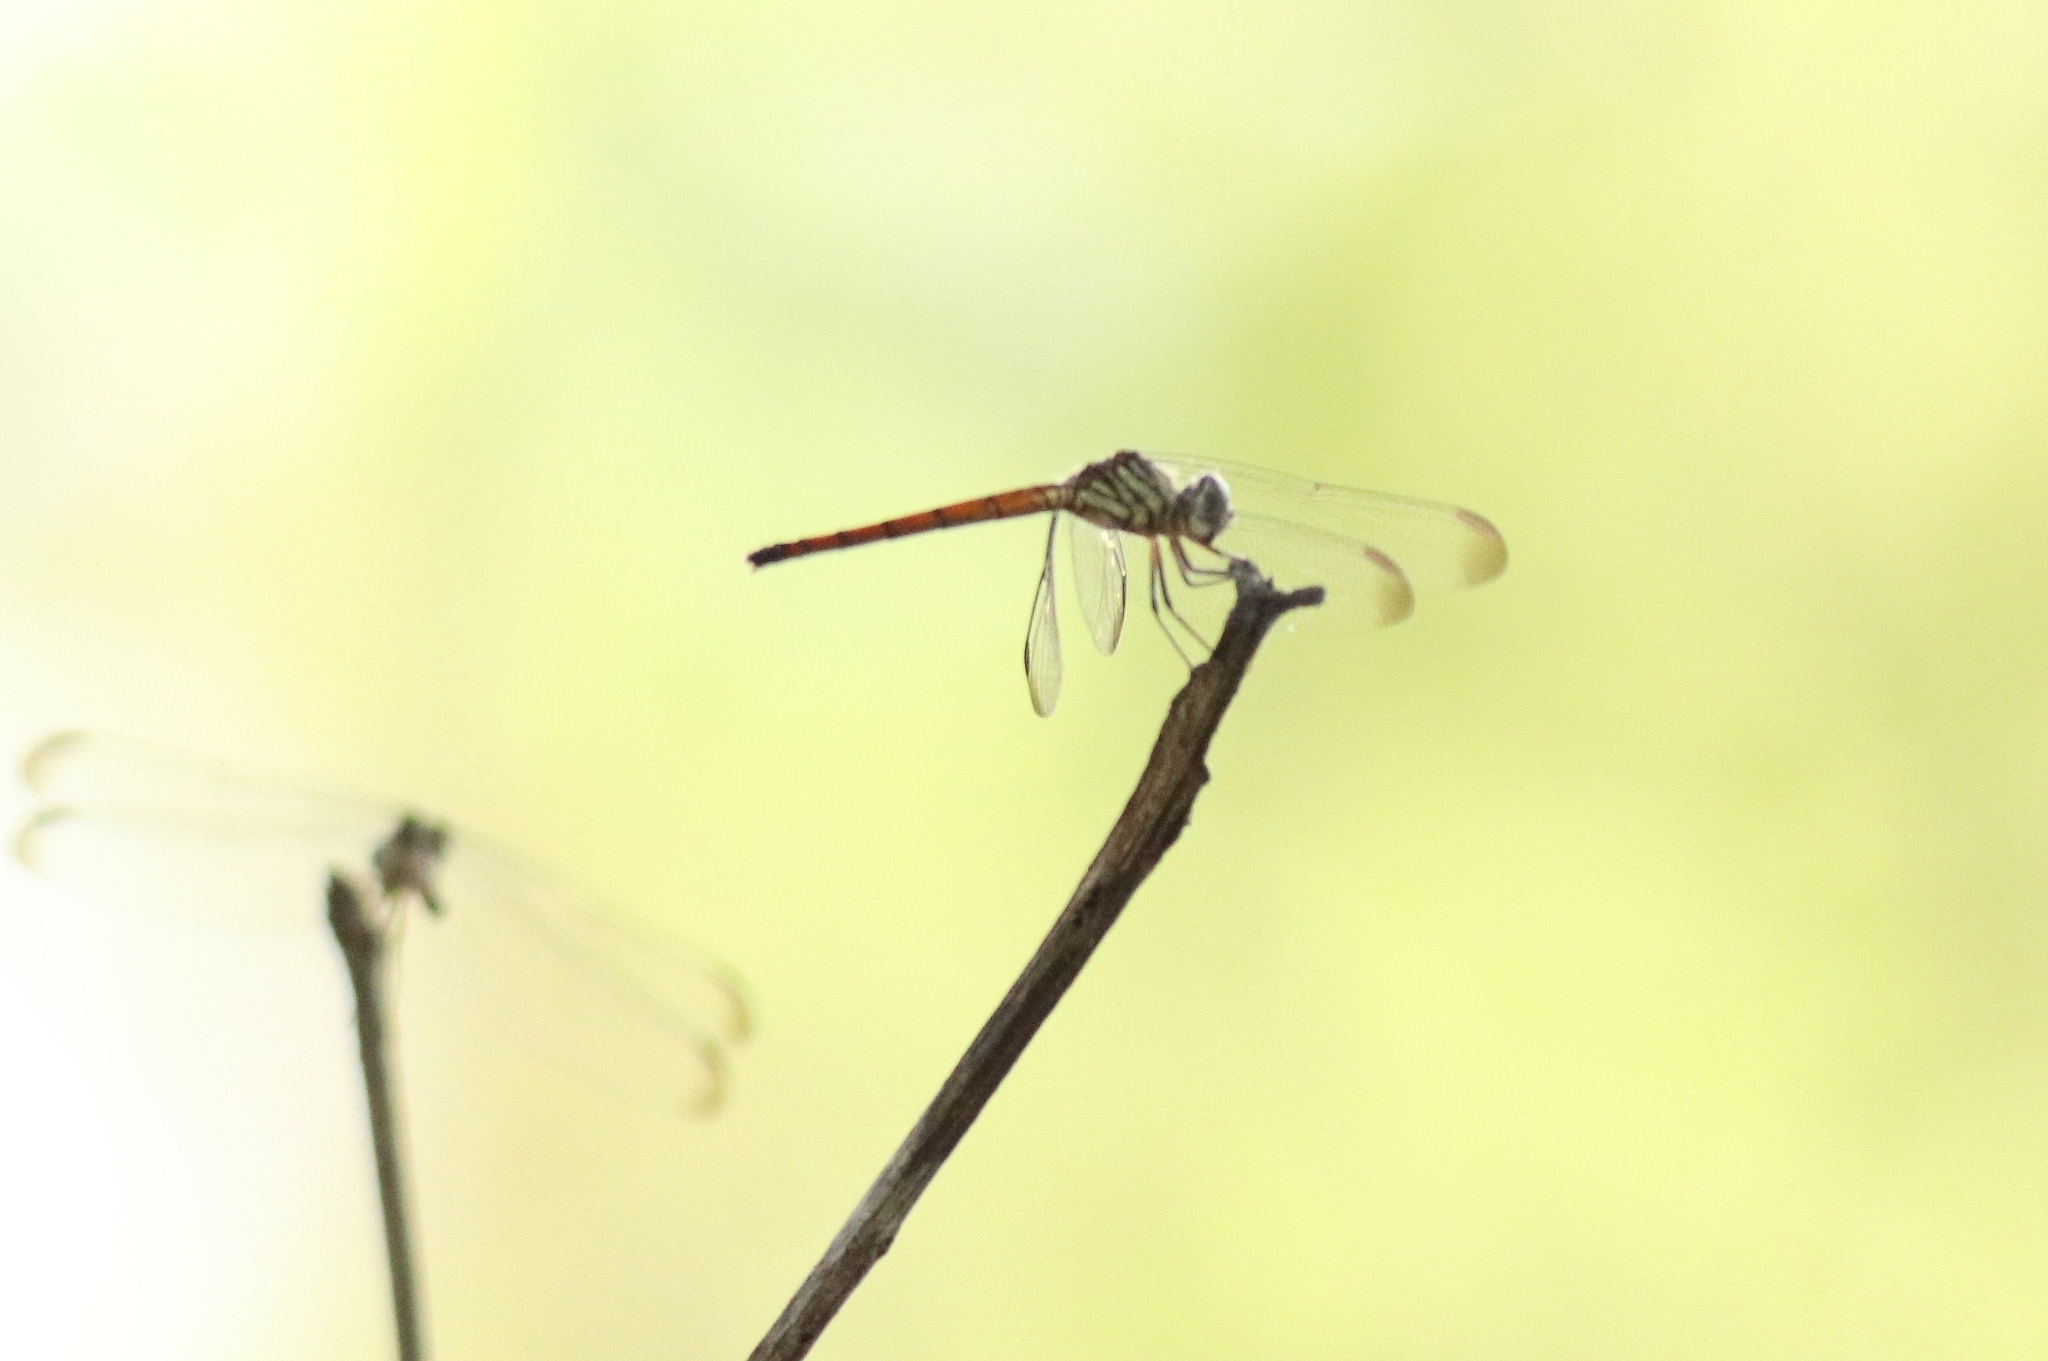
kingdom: Animalia
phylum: Arthropoda
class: Insecta
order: Odonata
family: Libellulidae
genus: Lathrecista
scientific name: Lathrecista asiatica
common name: Scarlet grenadier
